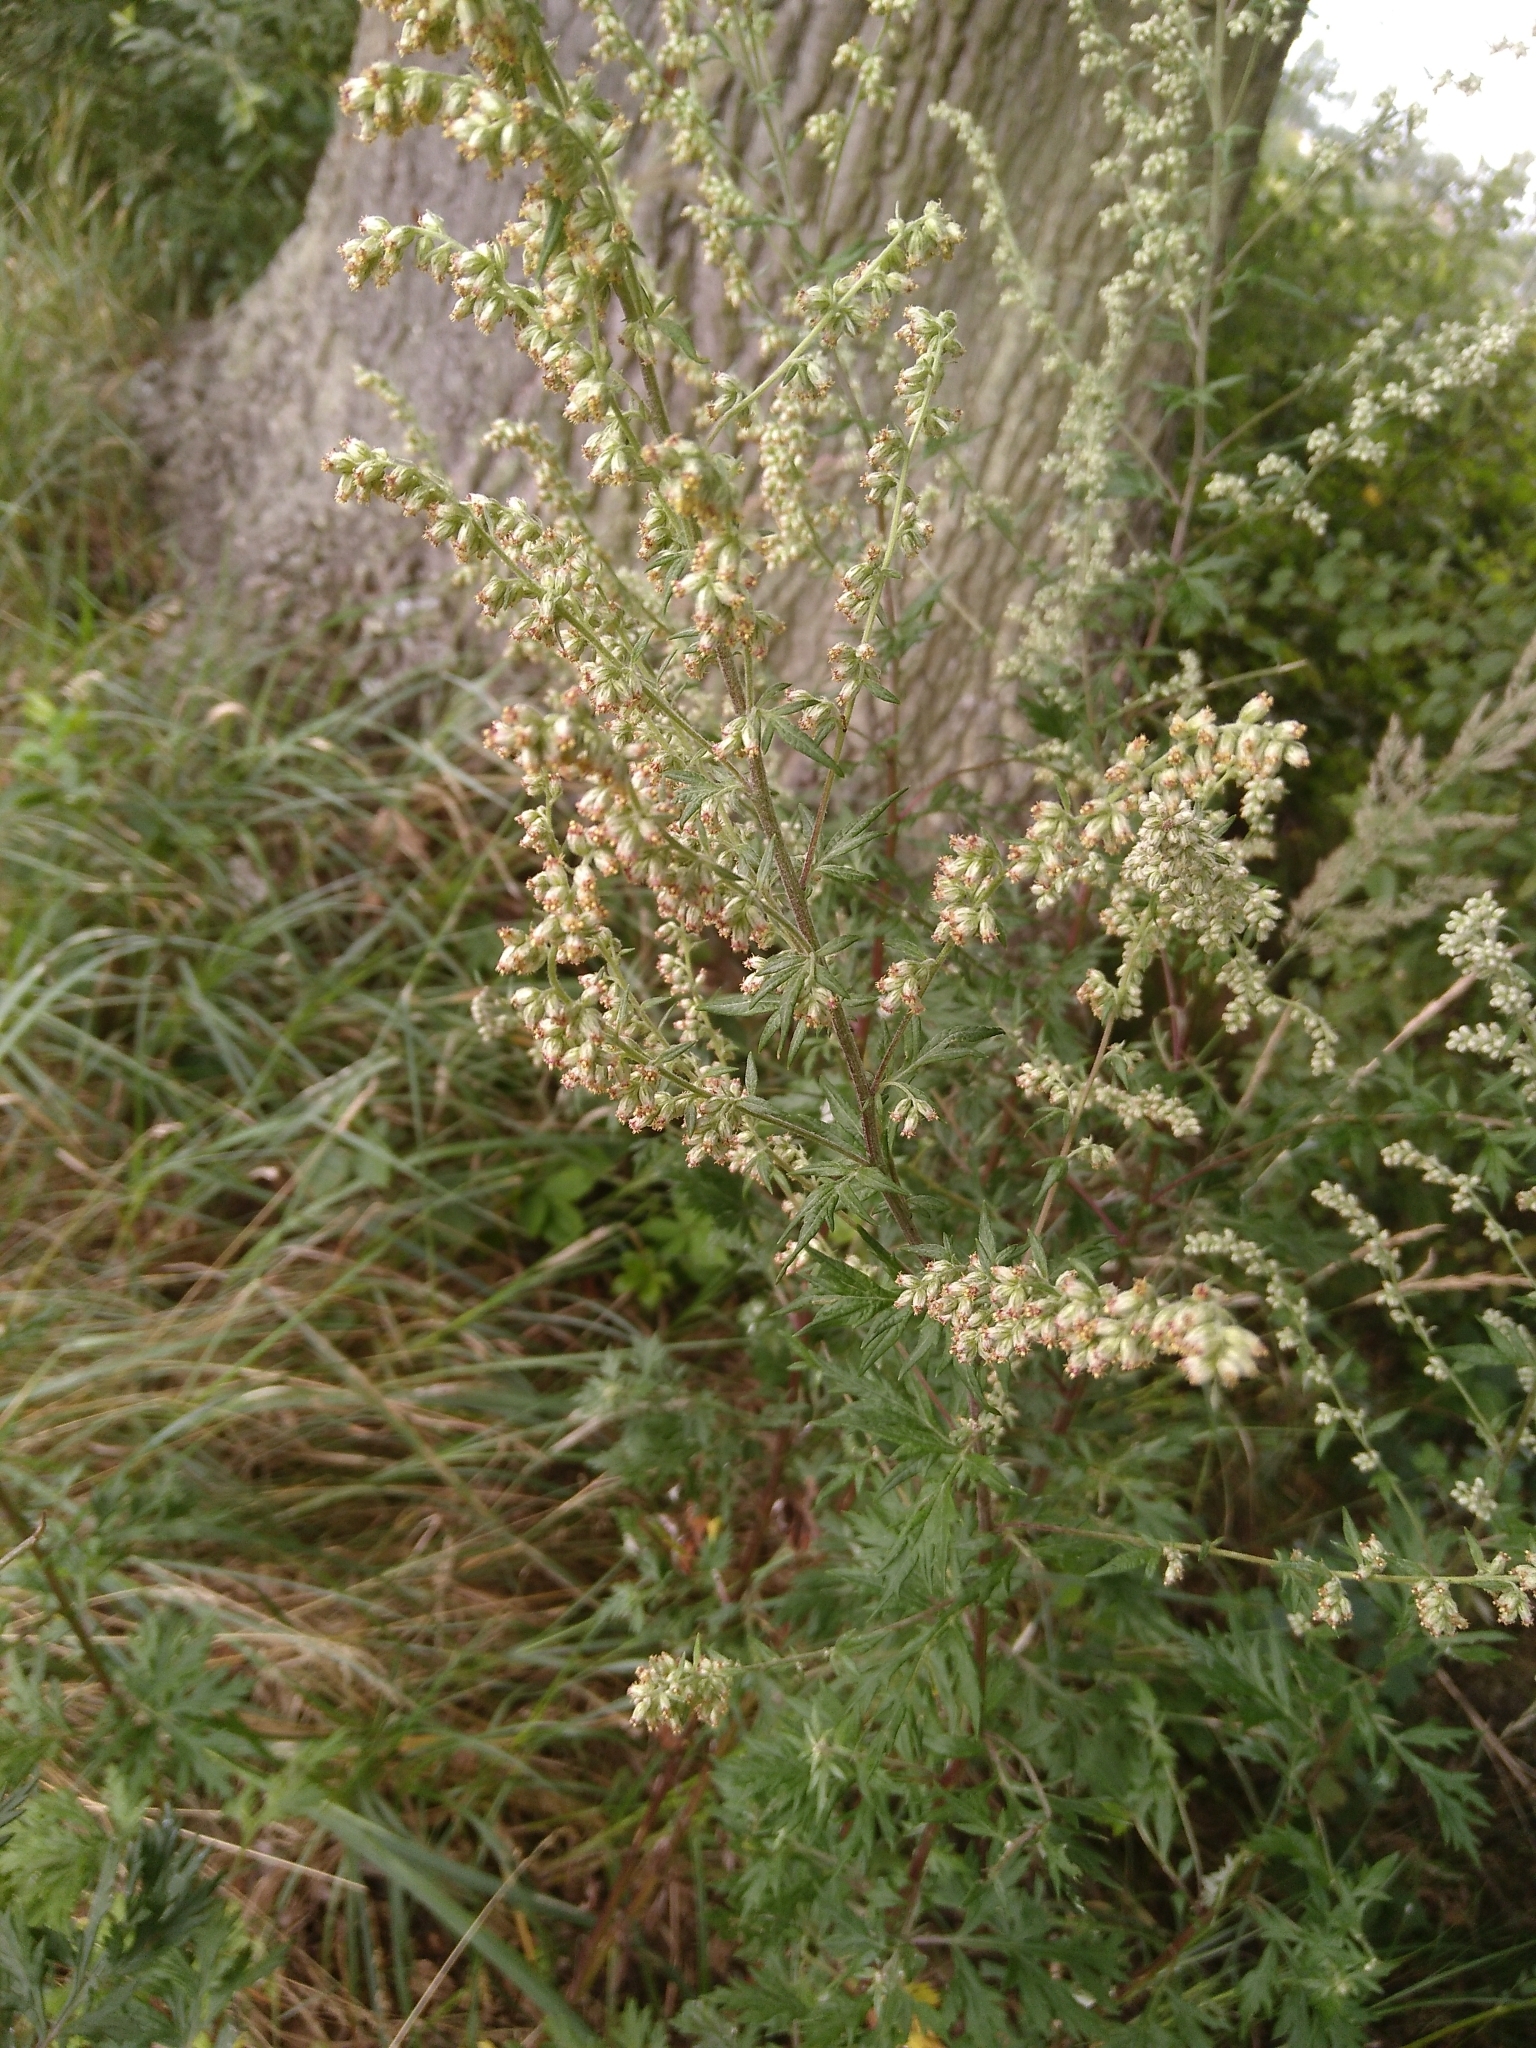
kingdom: Plantae
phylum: Tracheophyta
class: Magnoliopsida
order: Asterales
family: Asteraceae
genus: Artemisia
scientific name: Artemisia vulgaris
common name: Mugwort
